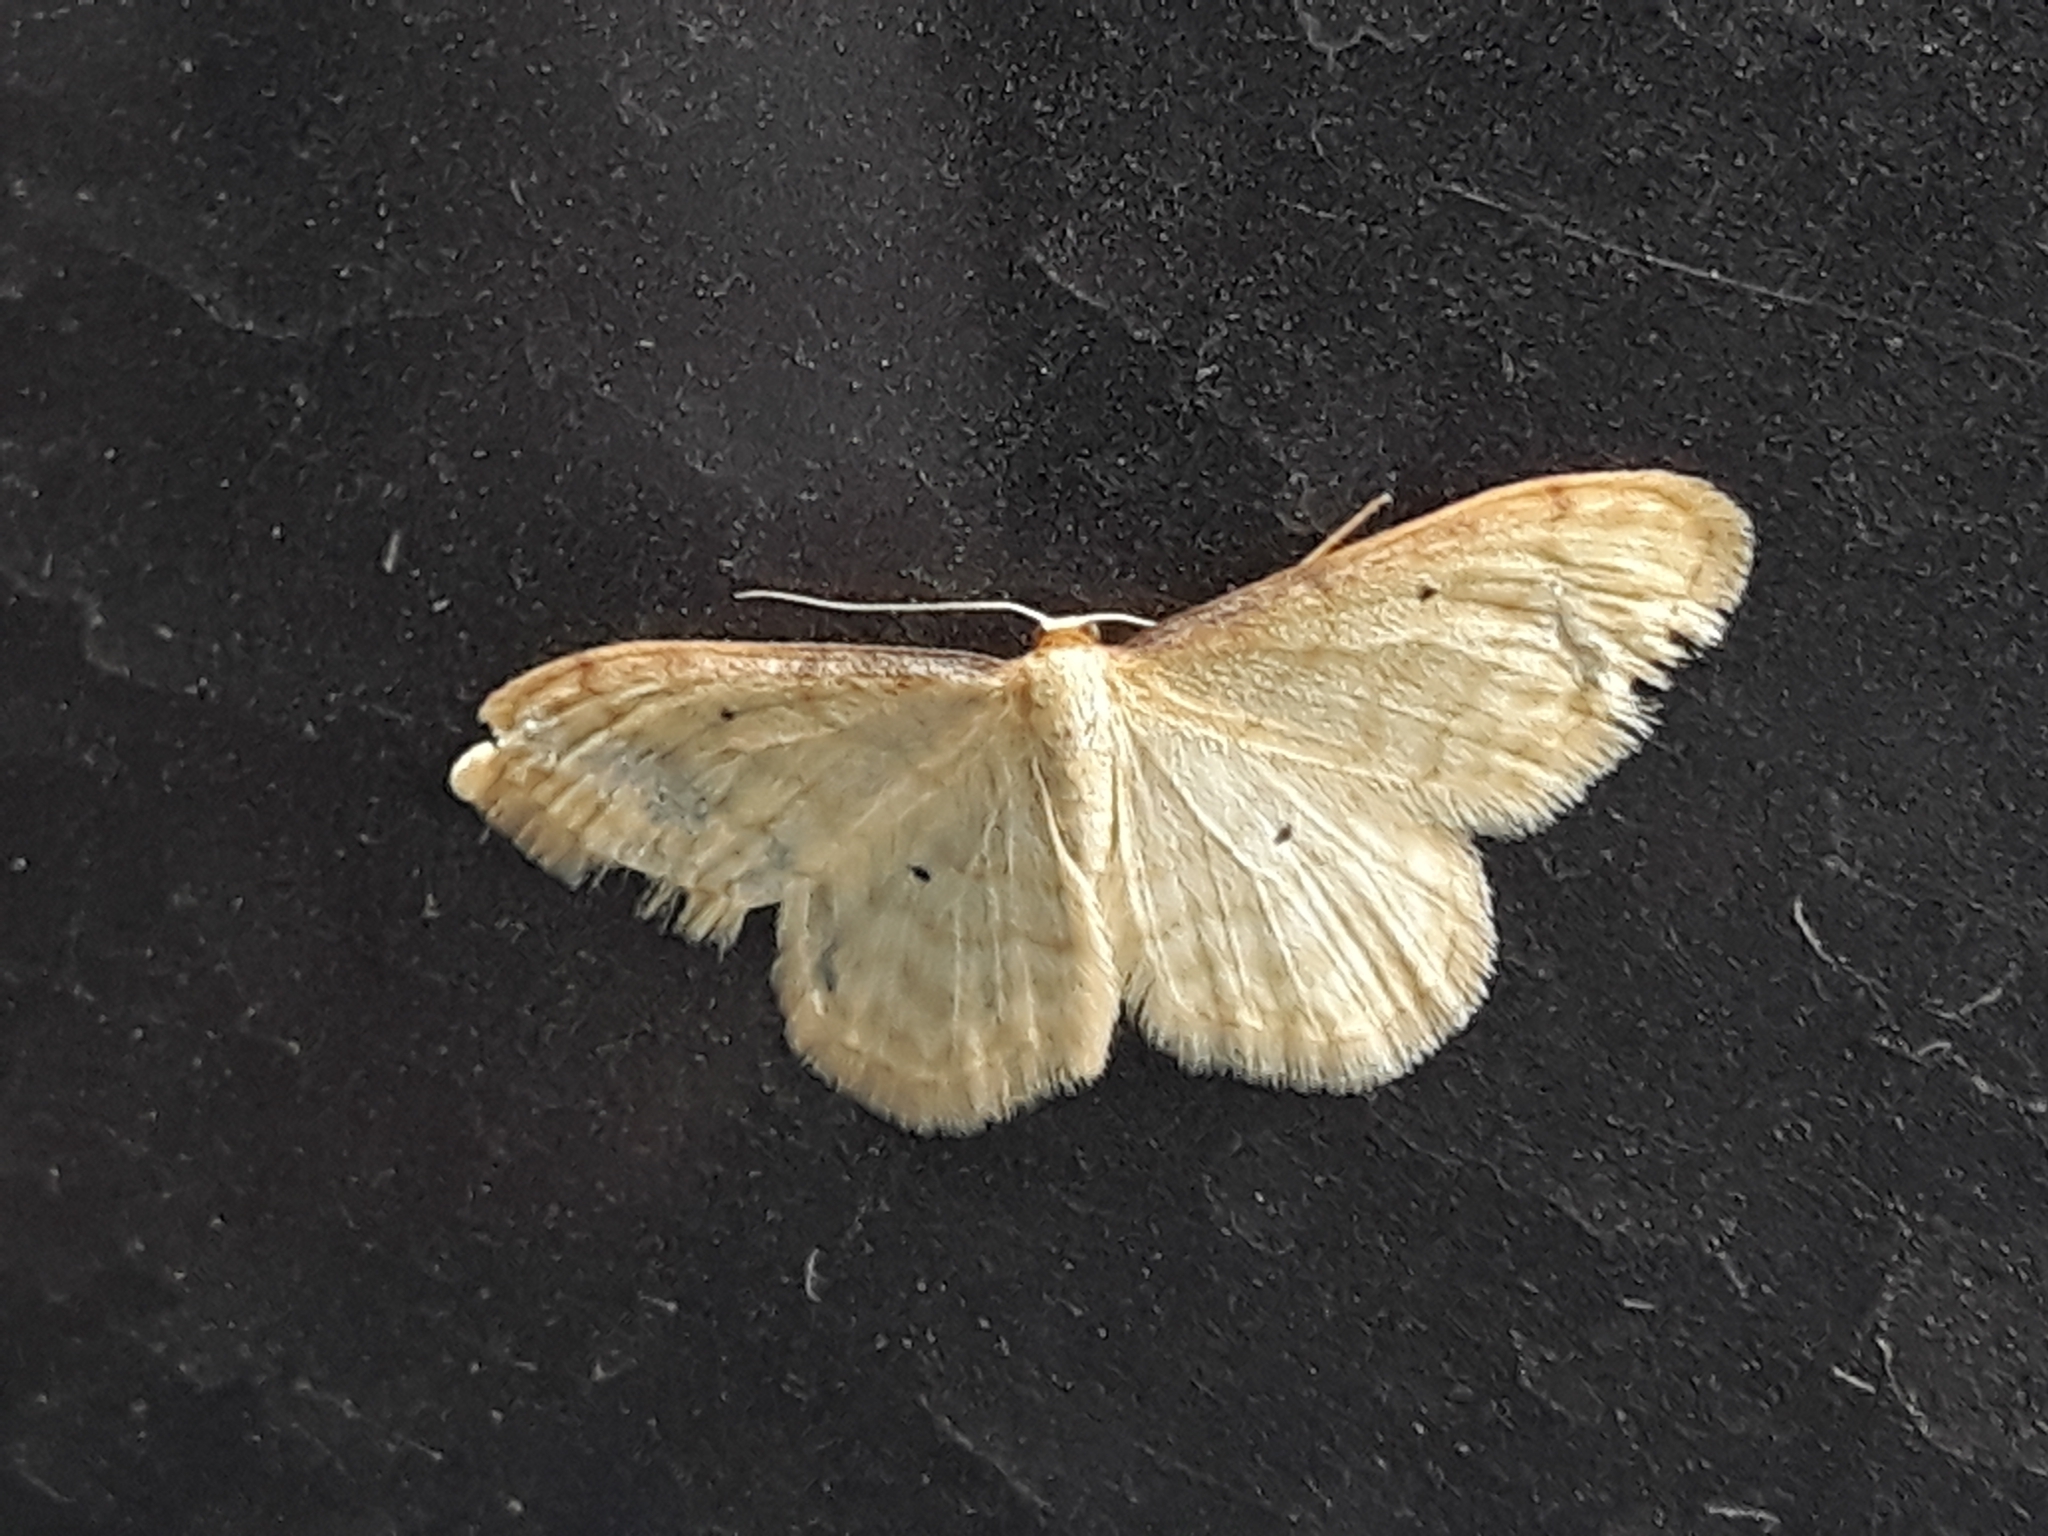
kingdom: Animalia
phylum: Arthropoda
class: Insecta
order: Lepidoptera
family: Geometridae
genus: Idaea
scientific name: Idaea bigladiata
